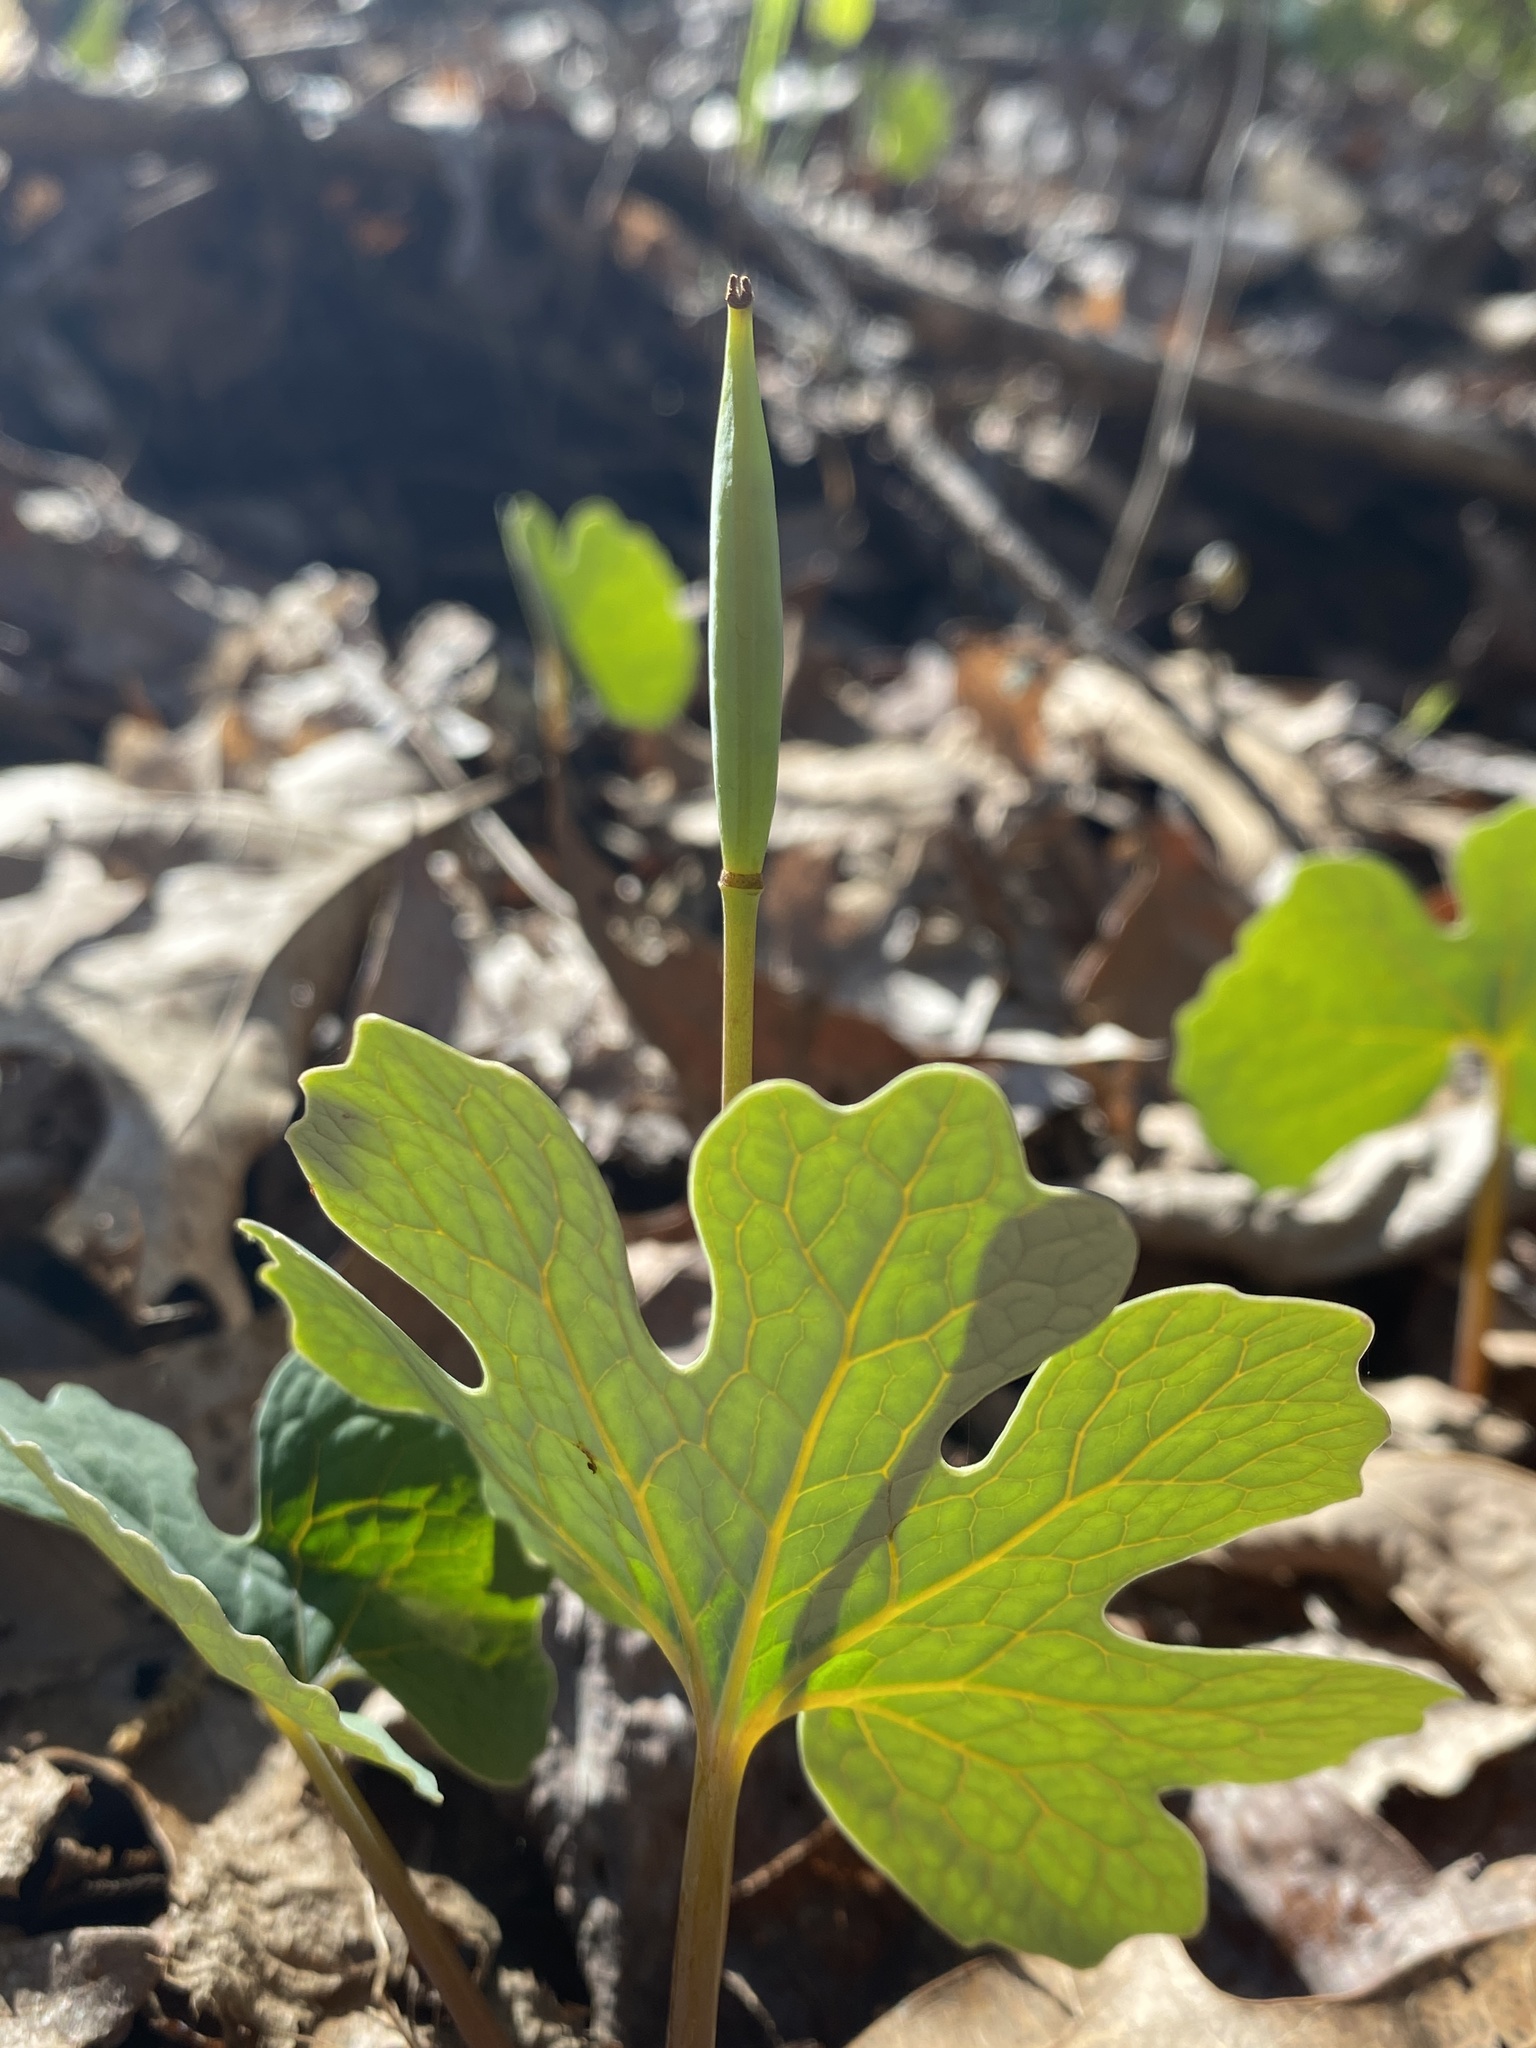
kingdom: Plantae
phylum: Tracheophyta
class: Magnoliopsida
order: Ranunculales
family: Papaveraceae
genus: Sanguinaria
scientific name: Sanguinaria canadensis
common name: Bloodroot
